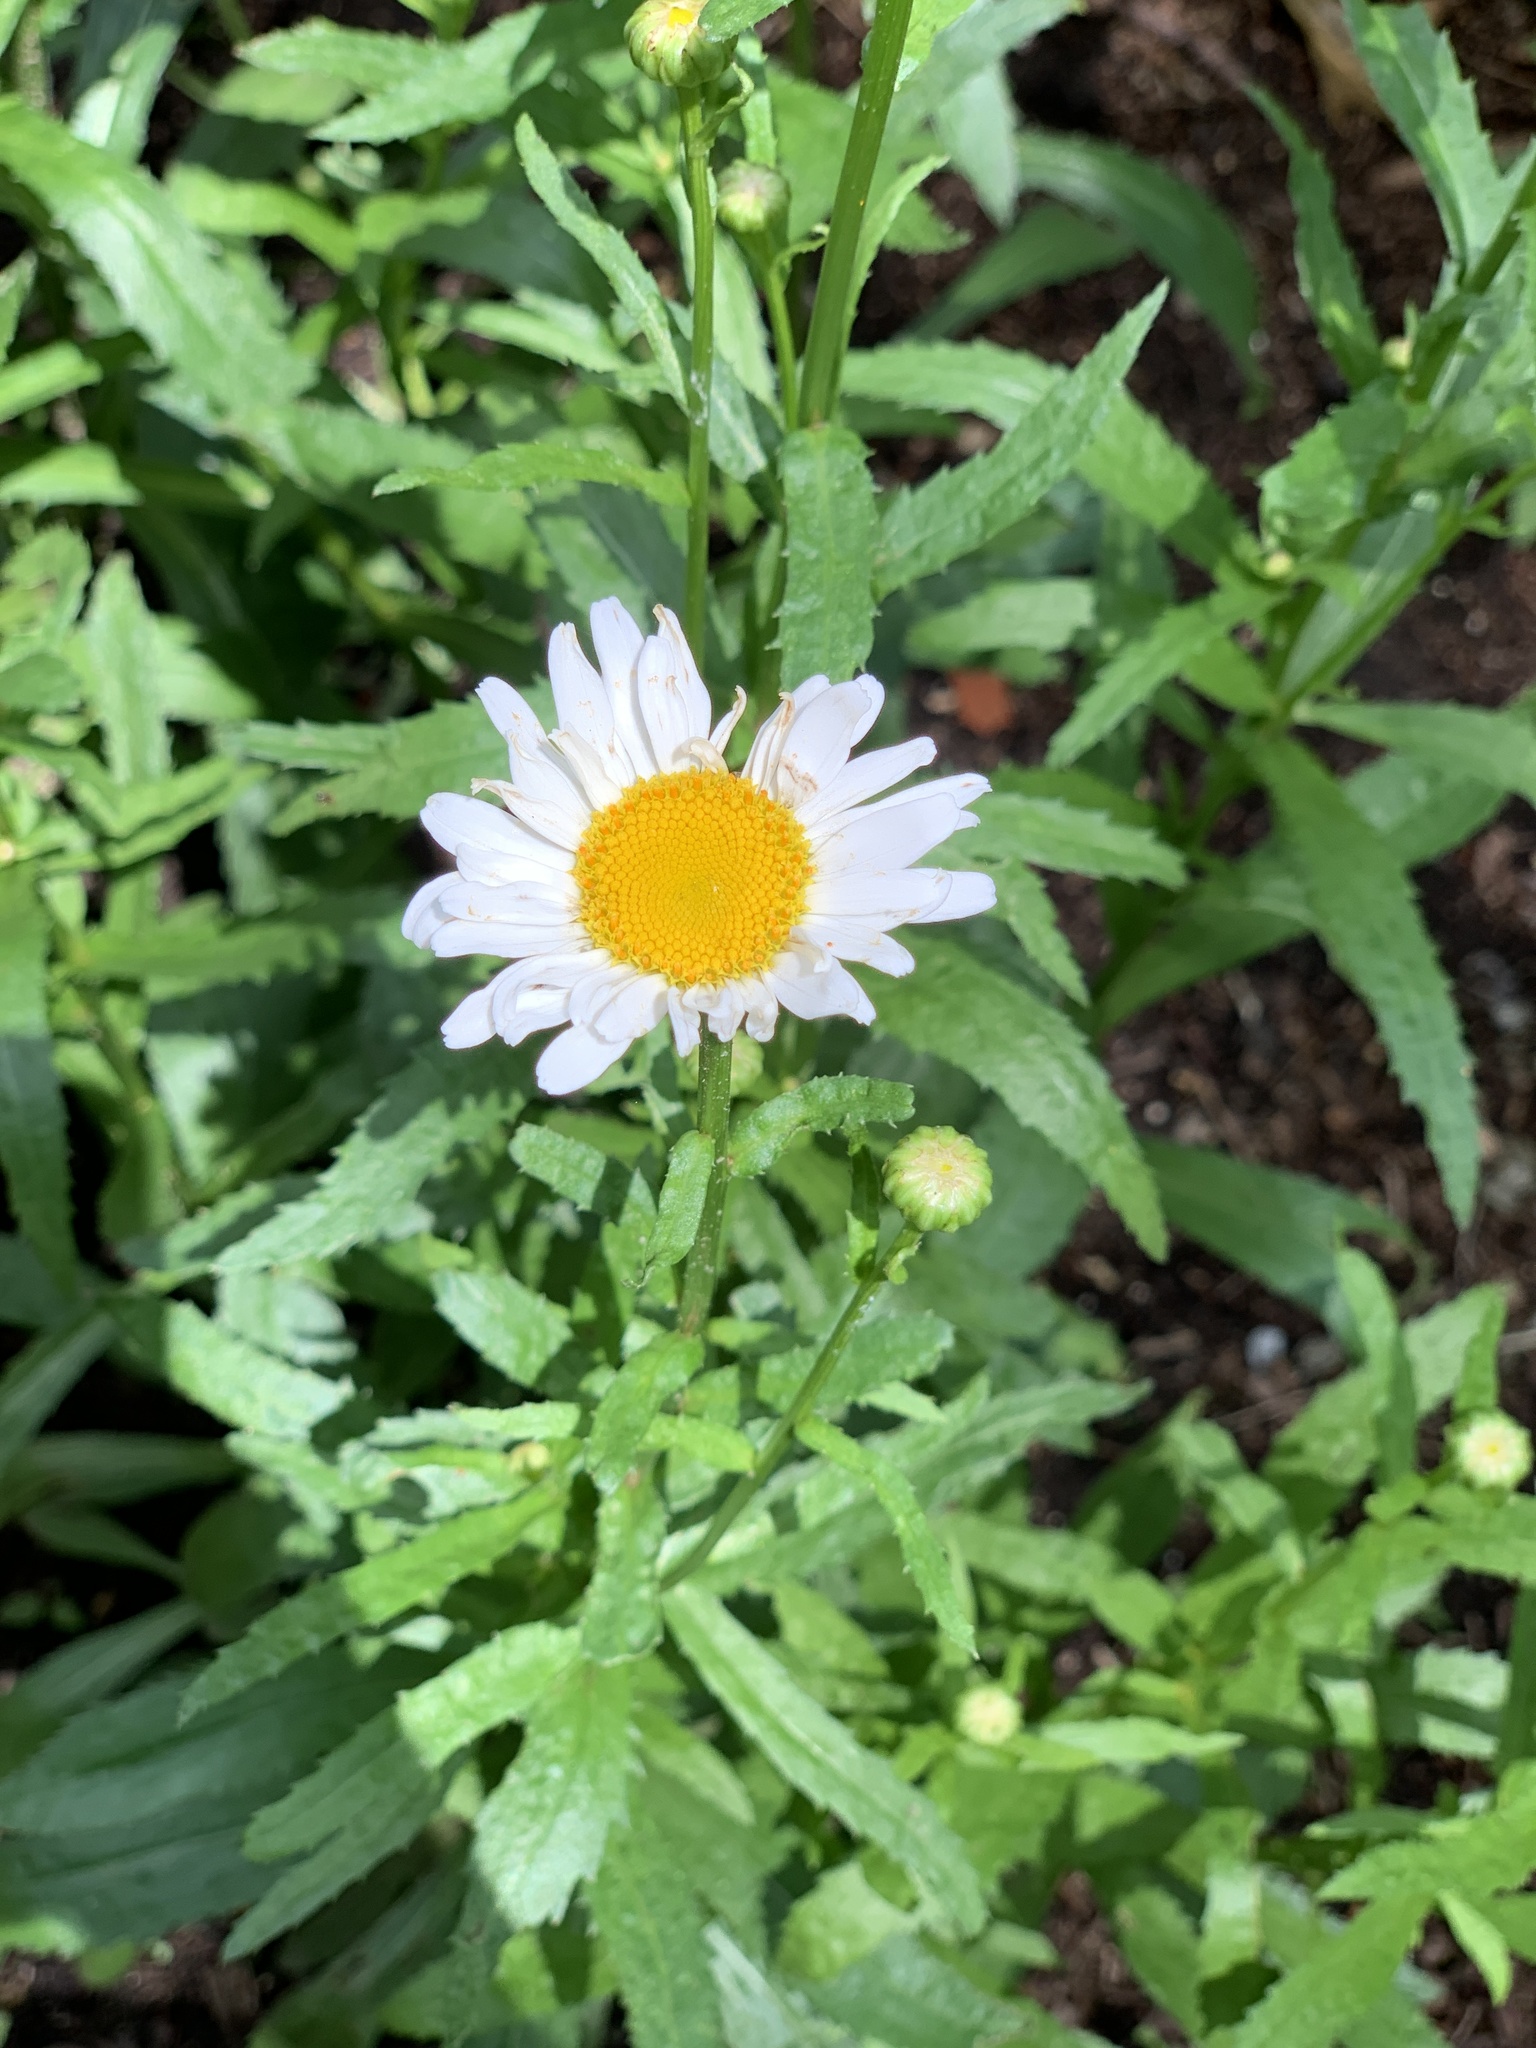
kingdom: Plantae
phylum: Tracheophyta
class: Magnoliopsida
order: Asterales
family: Asteraceae
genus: Leucanthemum
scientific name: Leucanthemum vulgare
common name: Oxeye daisy
